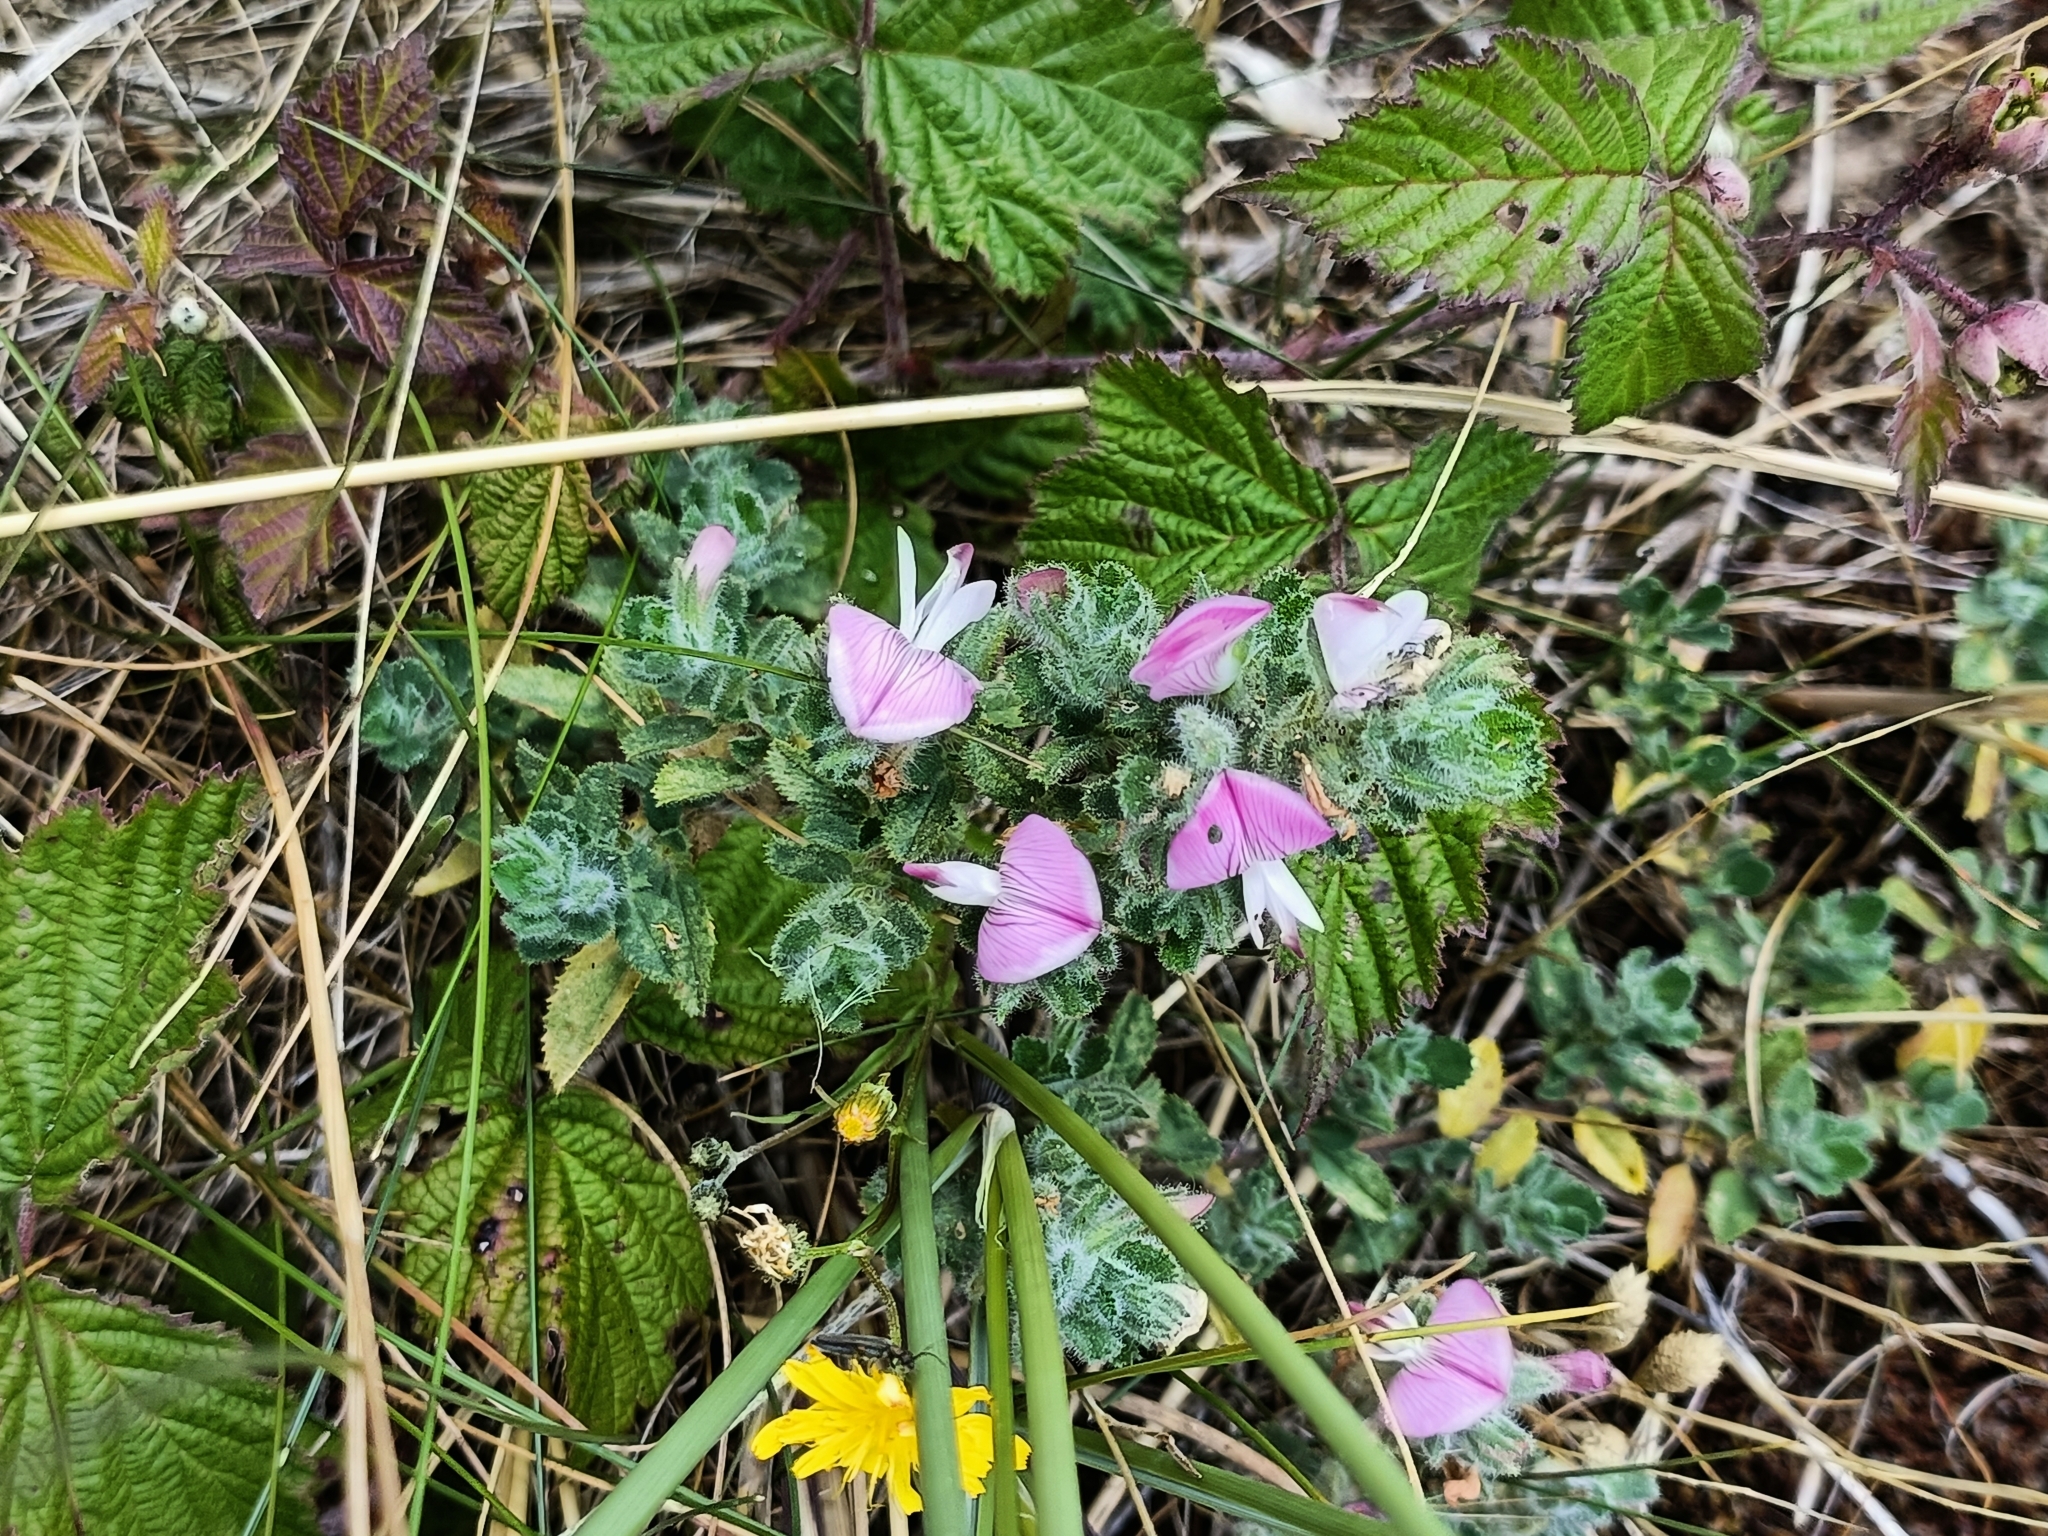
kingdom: Plantae
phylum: Tracheophyta
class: Magnoliopsida
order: Fabales
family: Fabaceae
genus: Ononis
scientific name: Ononis spinosa
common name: Spiny restharrow
